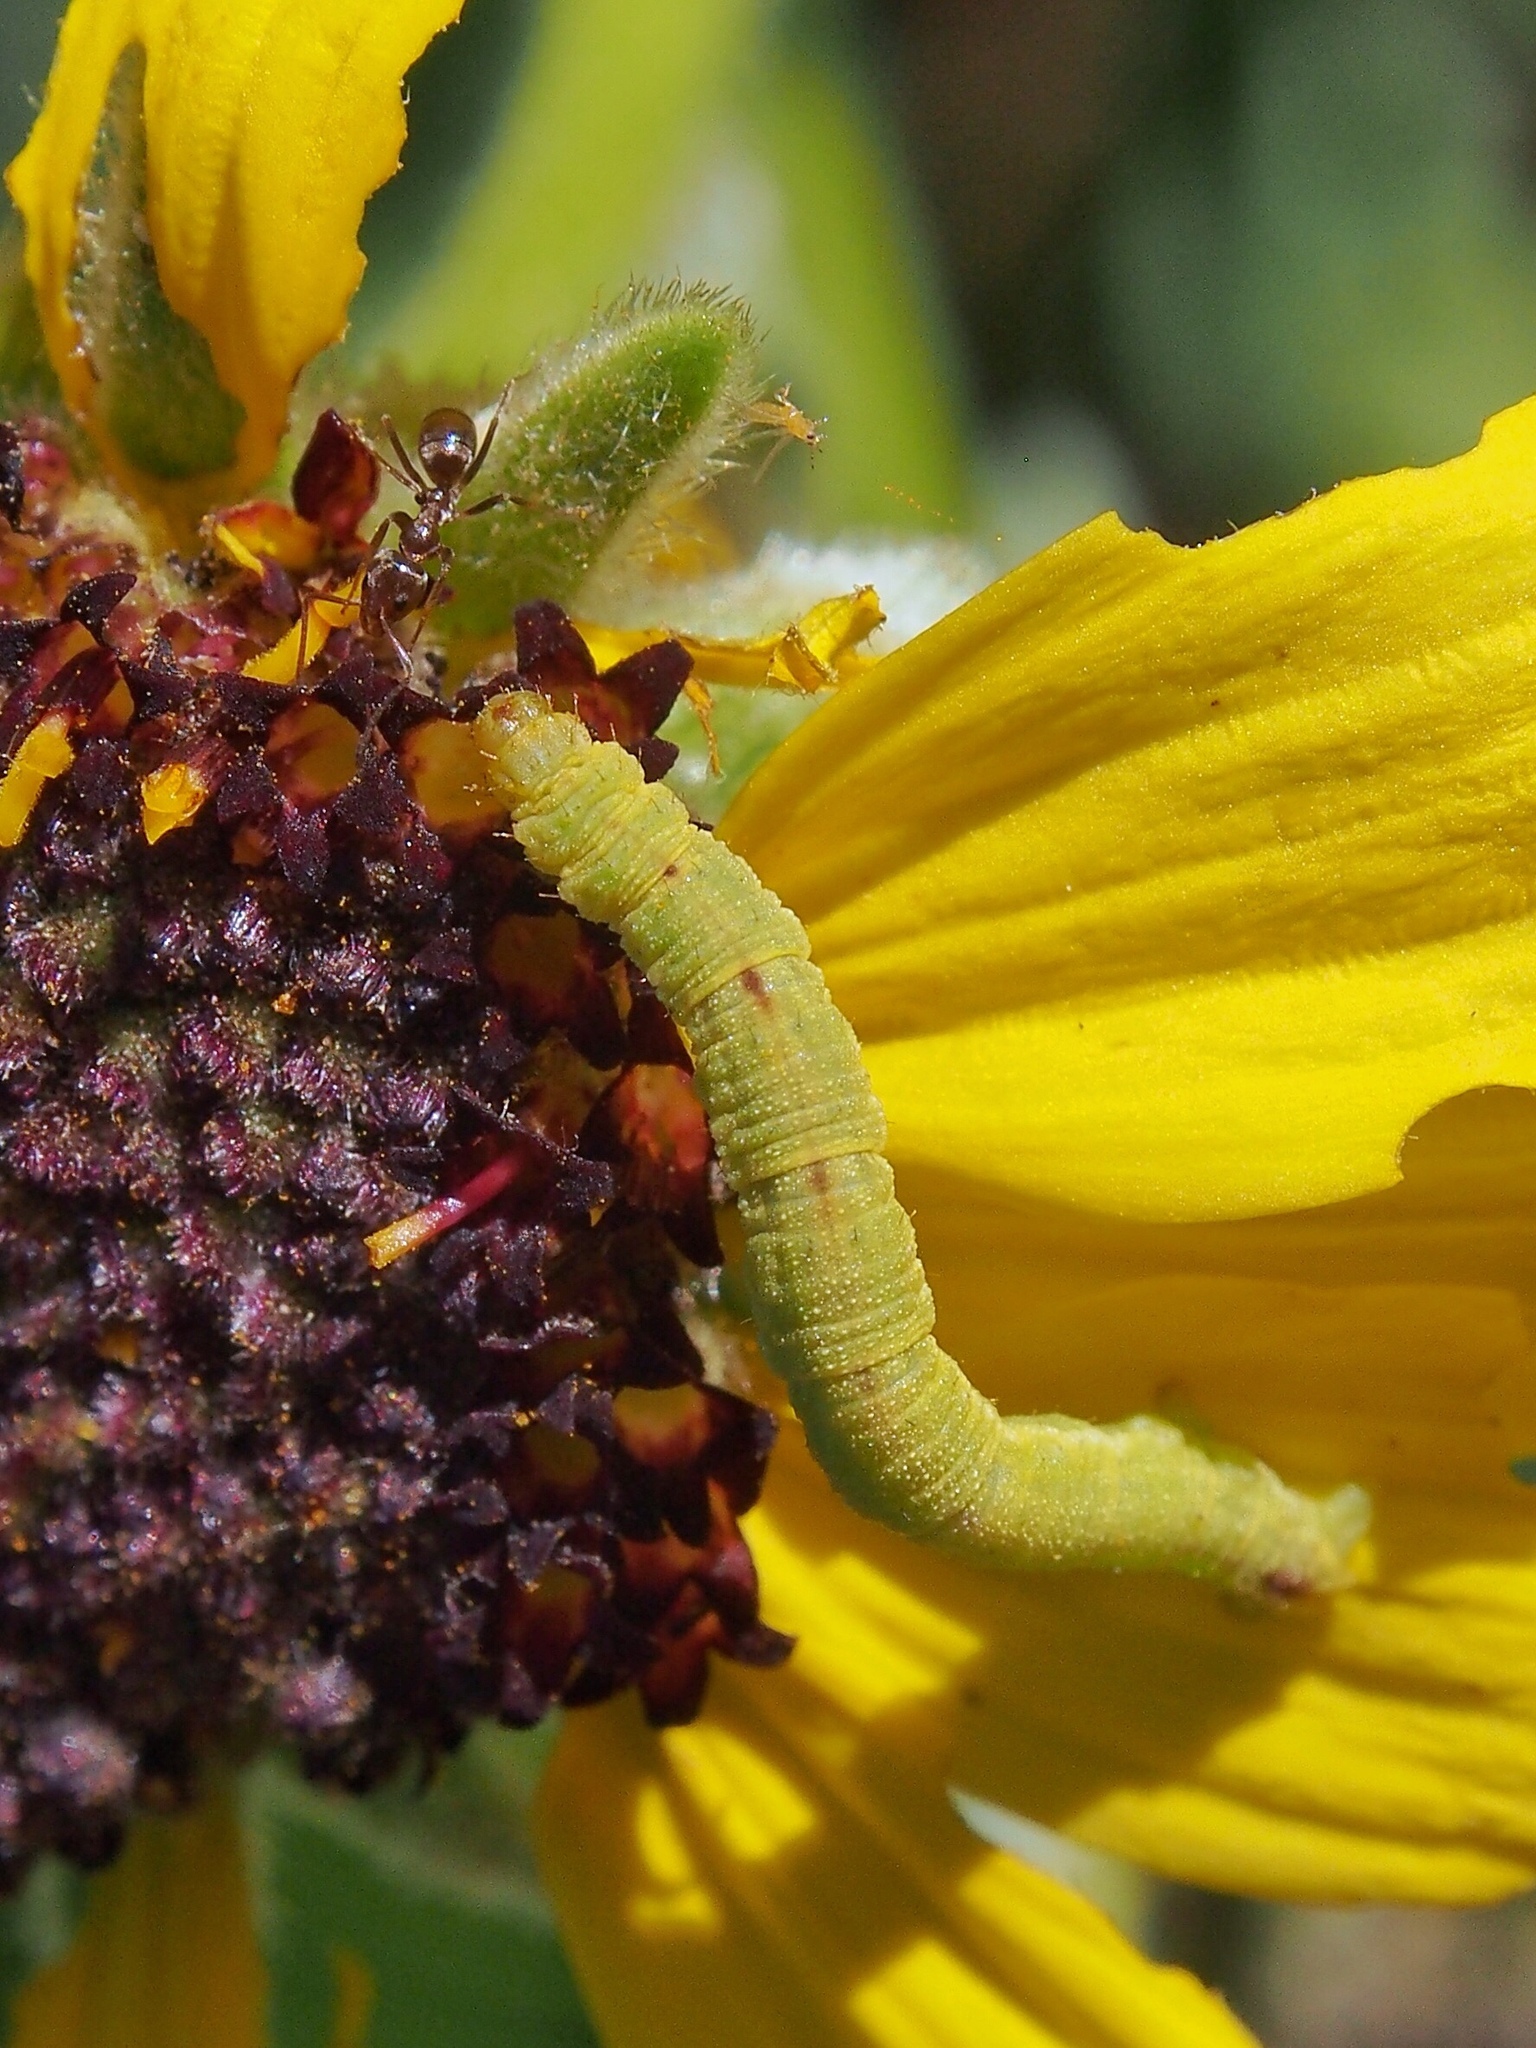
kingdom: Animalia
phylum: Arthropoda
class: Insecta
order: Hymenoptera
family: Formicidae
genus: Linepithema
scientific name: Linepithema humile
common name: Argentine ant
